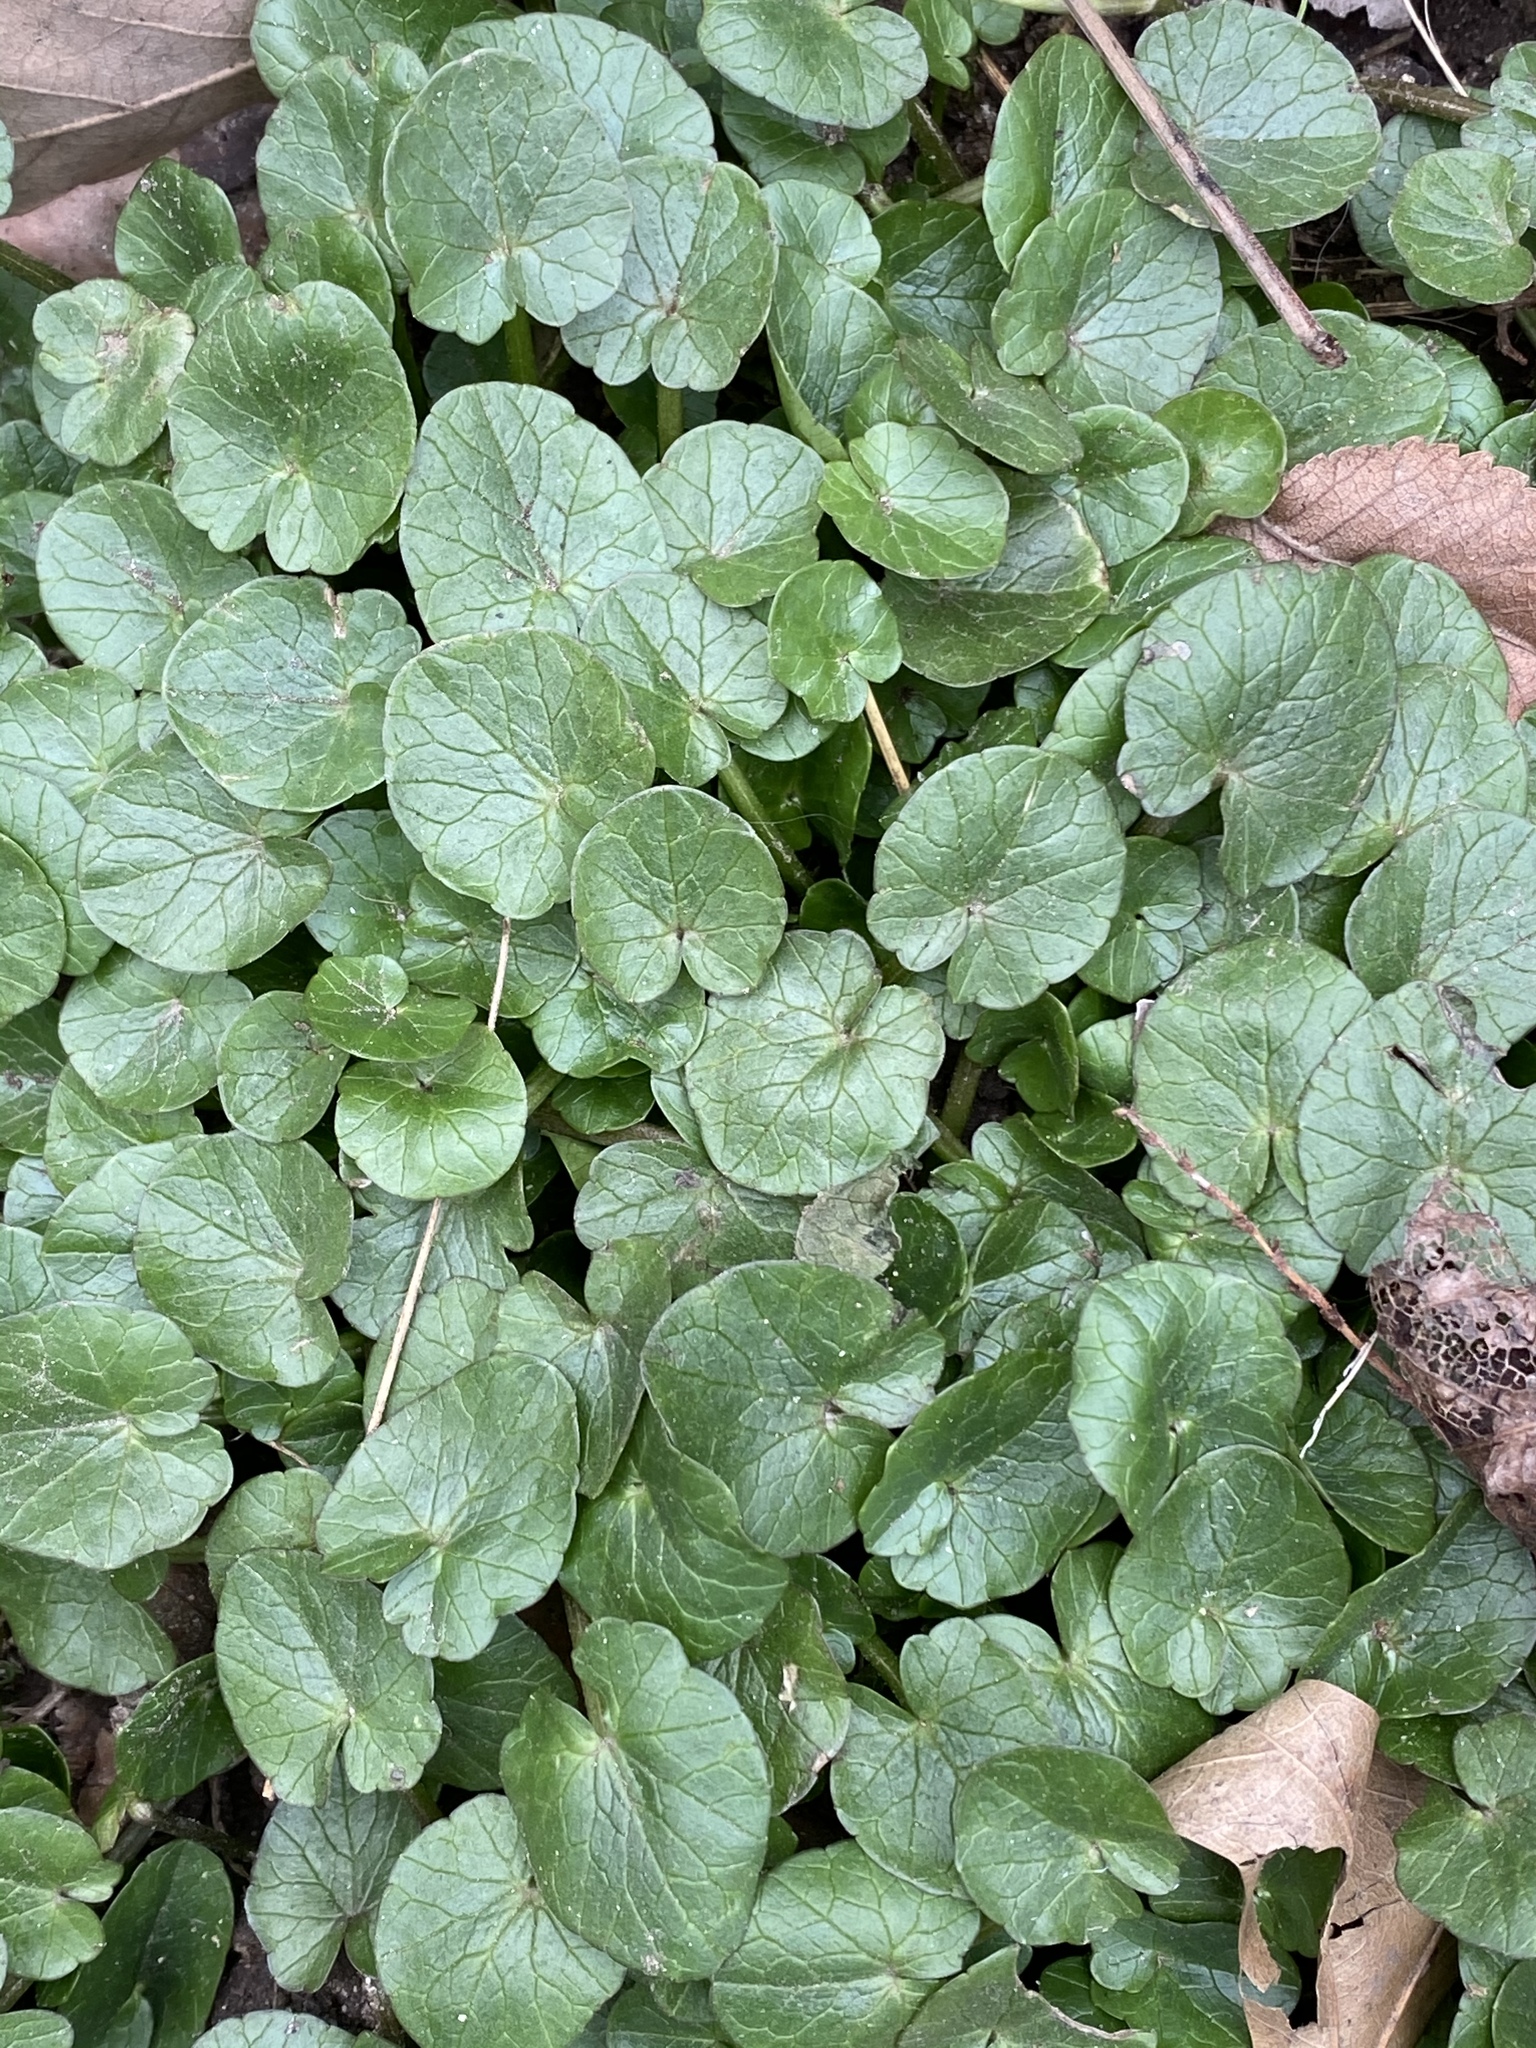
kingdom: Plantae
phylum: Tracheophyta
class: Magnoliopsida
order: Ranunculales
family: Ranunculaceae
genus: Ficaria
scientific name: Ficaria verna
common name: Lesser celandine
